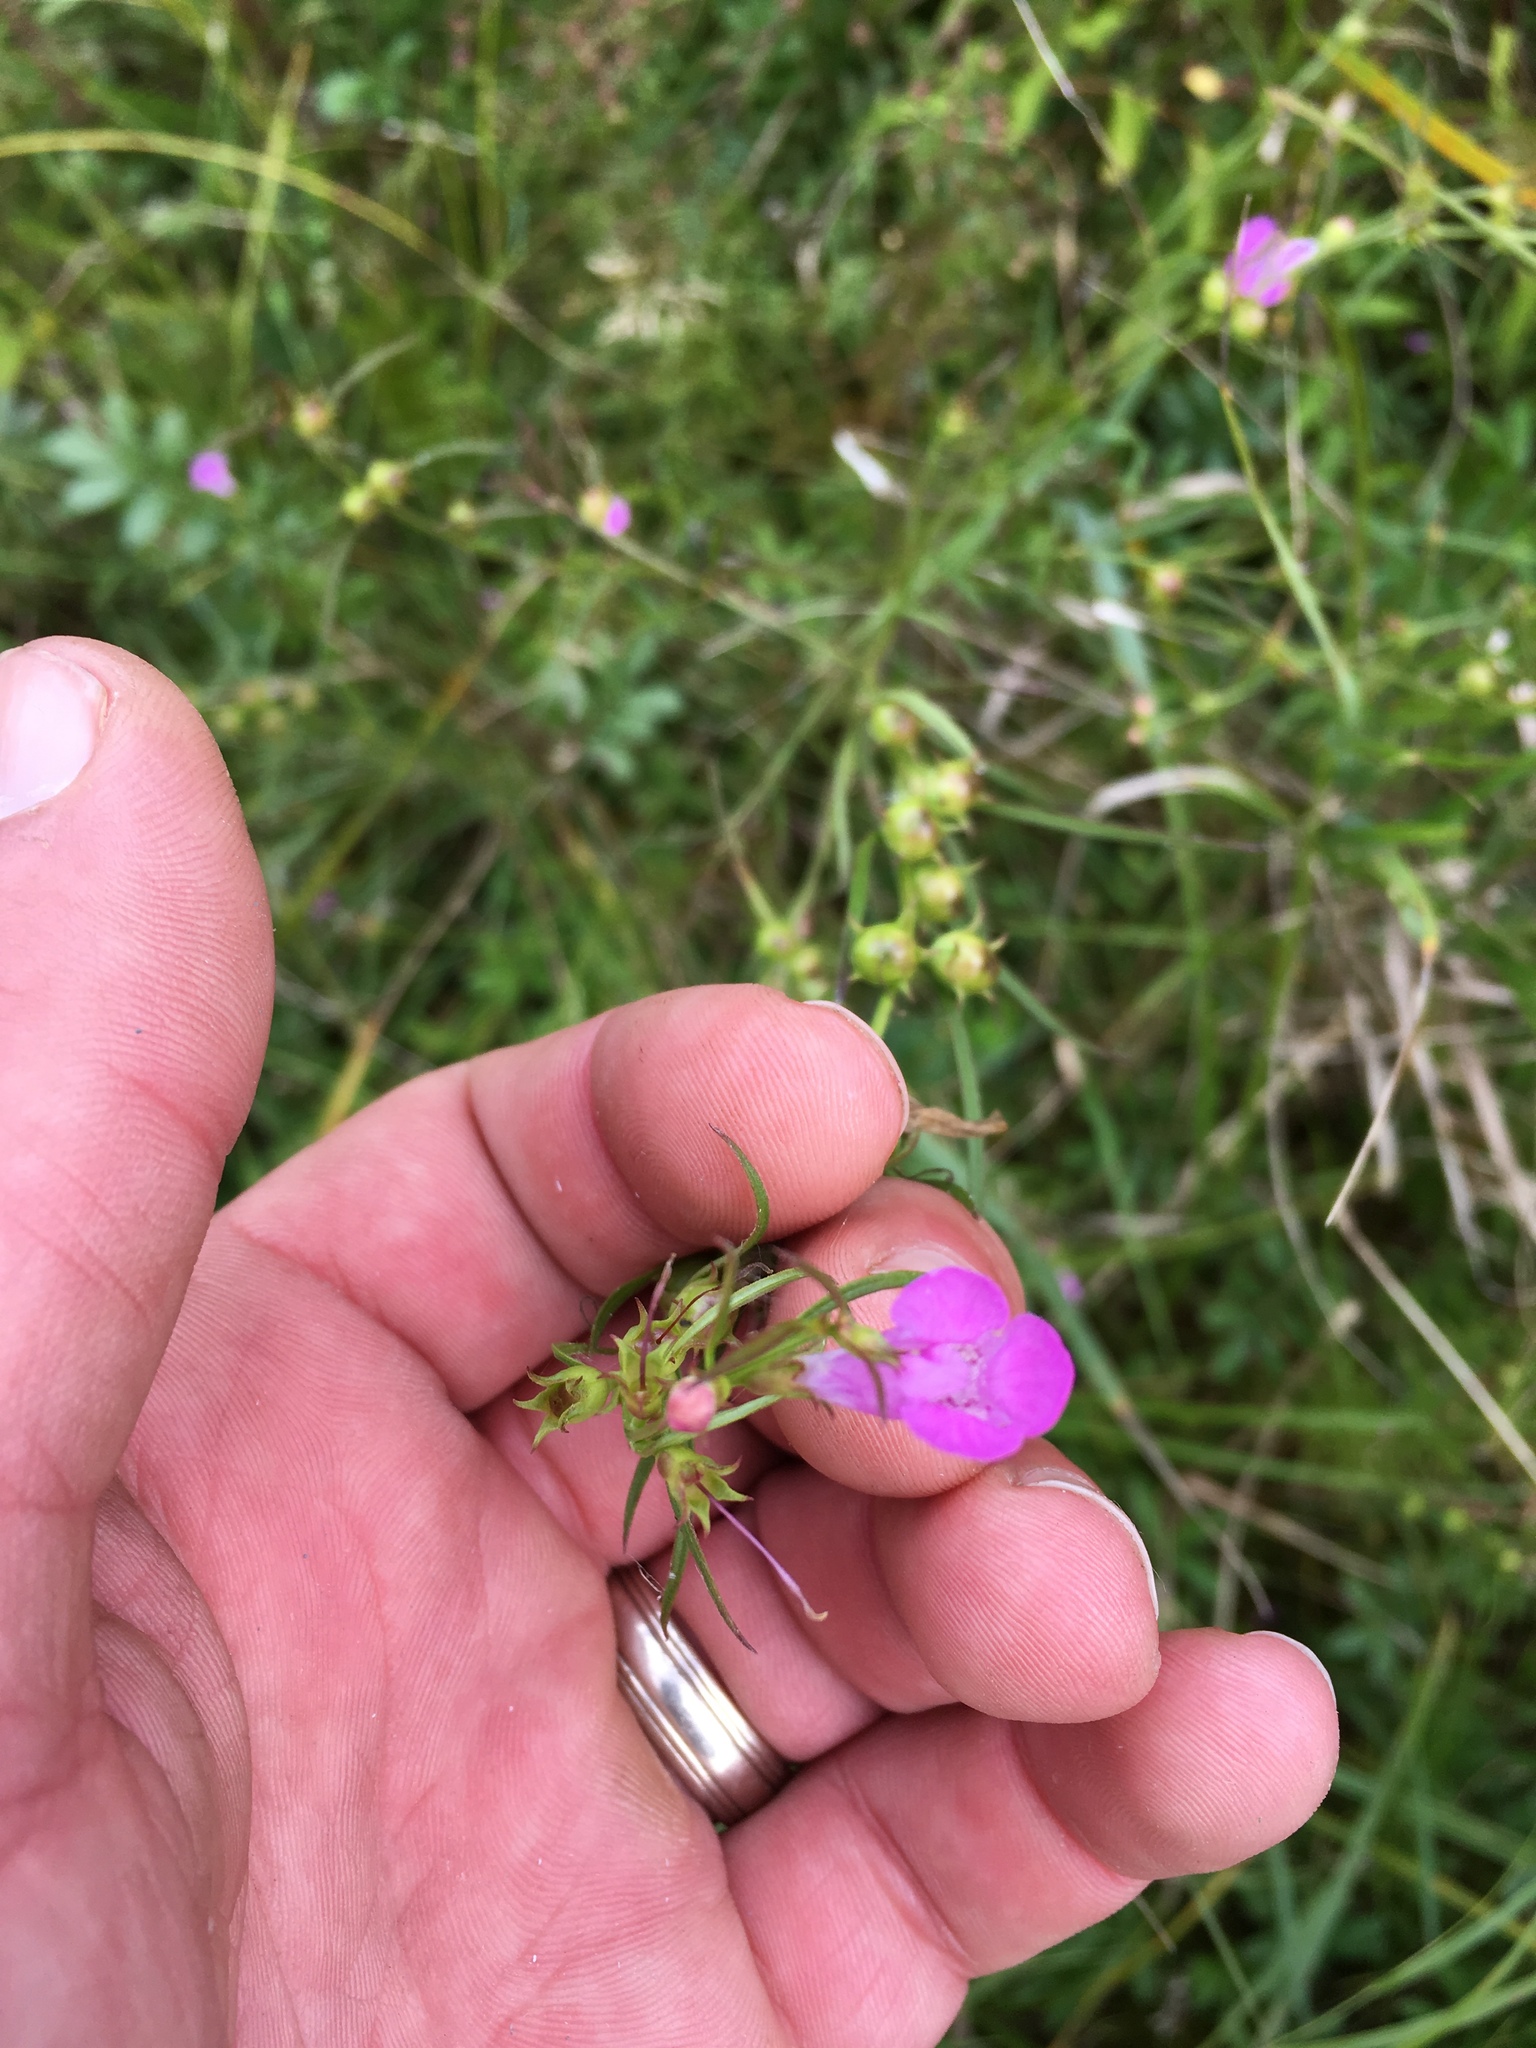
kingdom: Plantae
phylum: Tracheophyta
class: Magnoliopsida
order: Lamiales
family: Orobanchaceae
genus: Agalinis
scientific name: Agalinis purpurea
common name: Purple false foxglove
